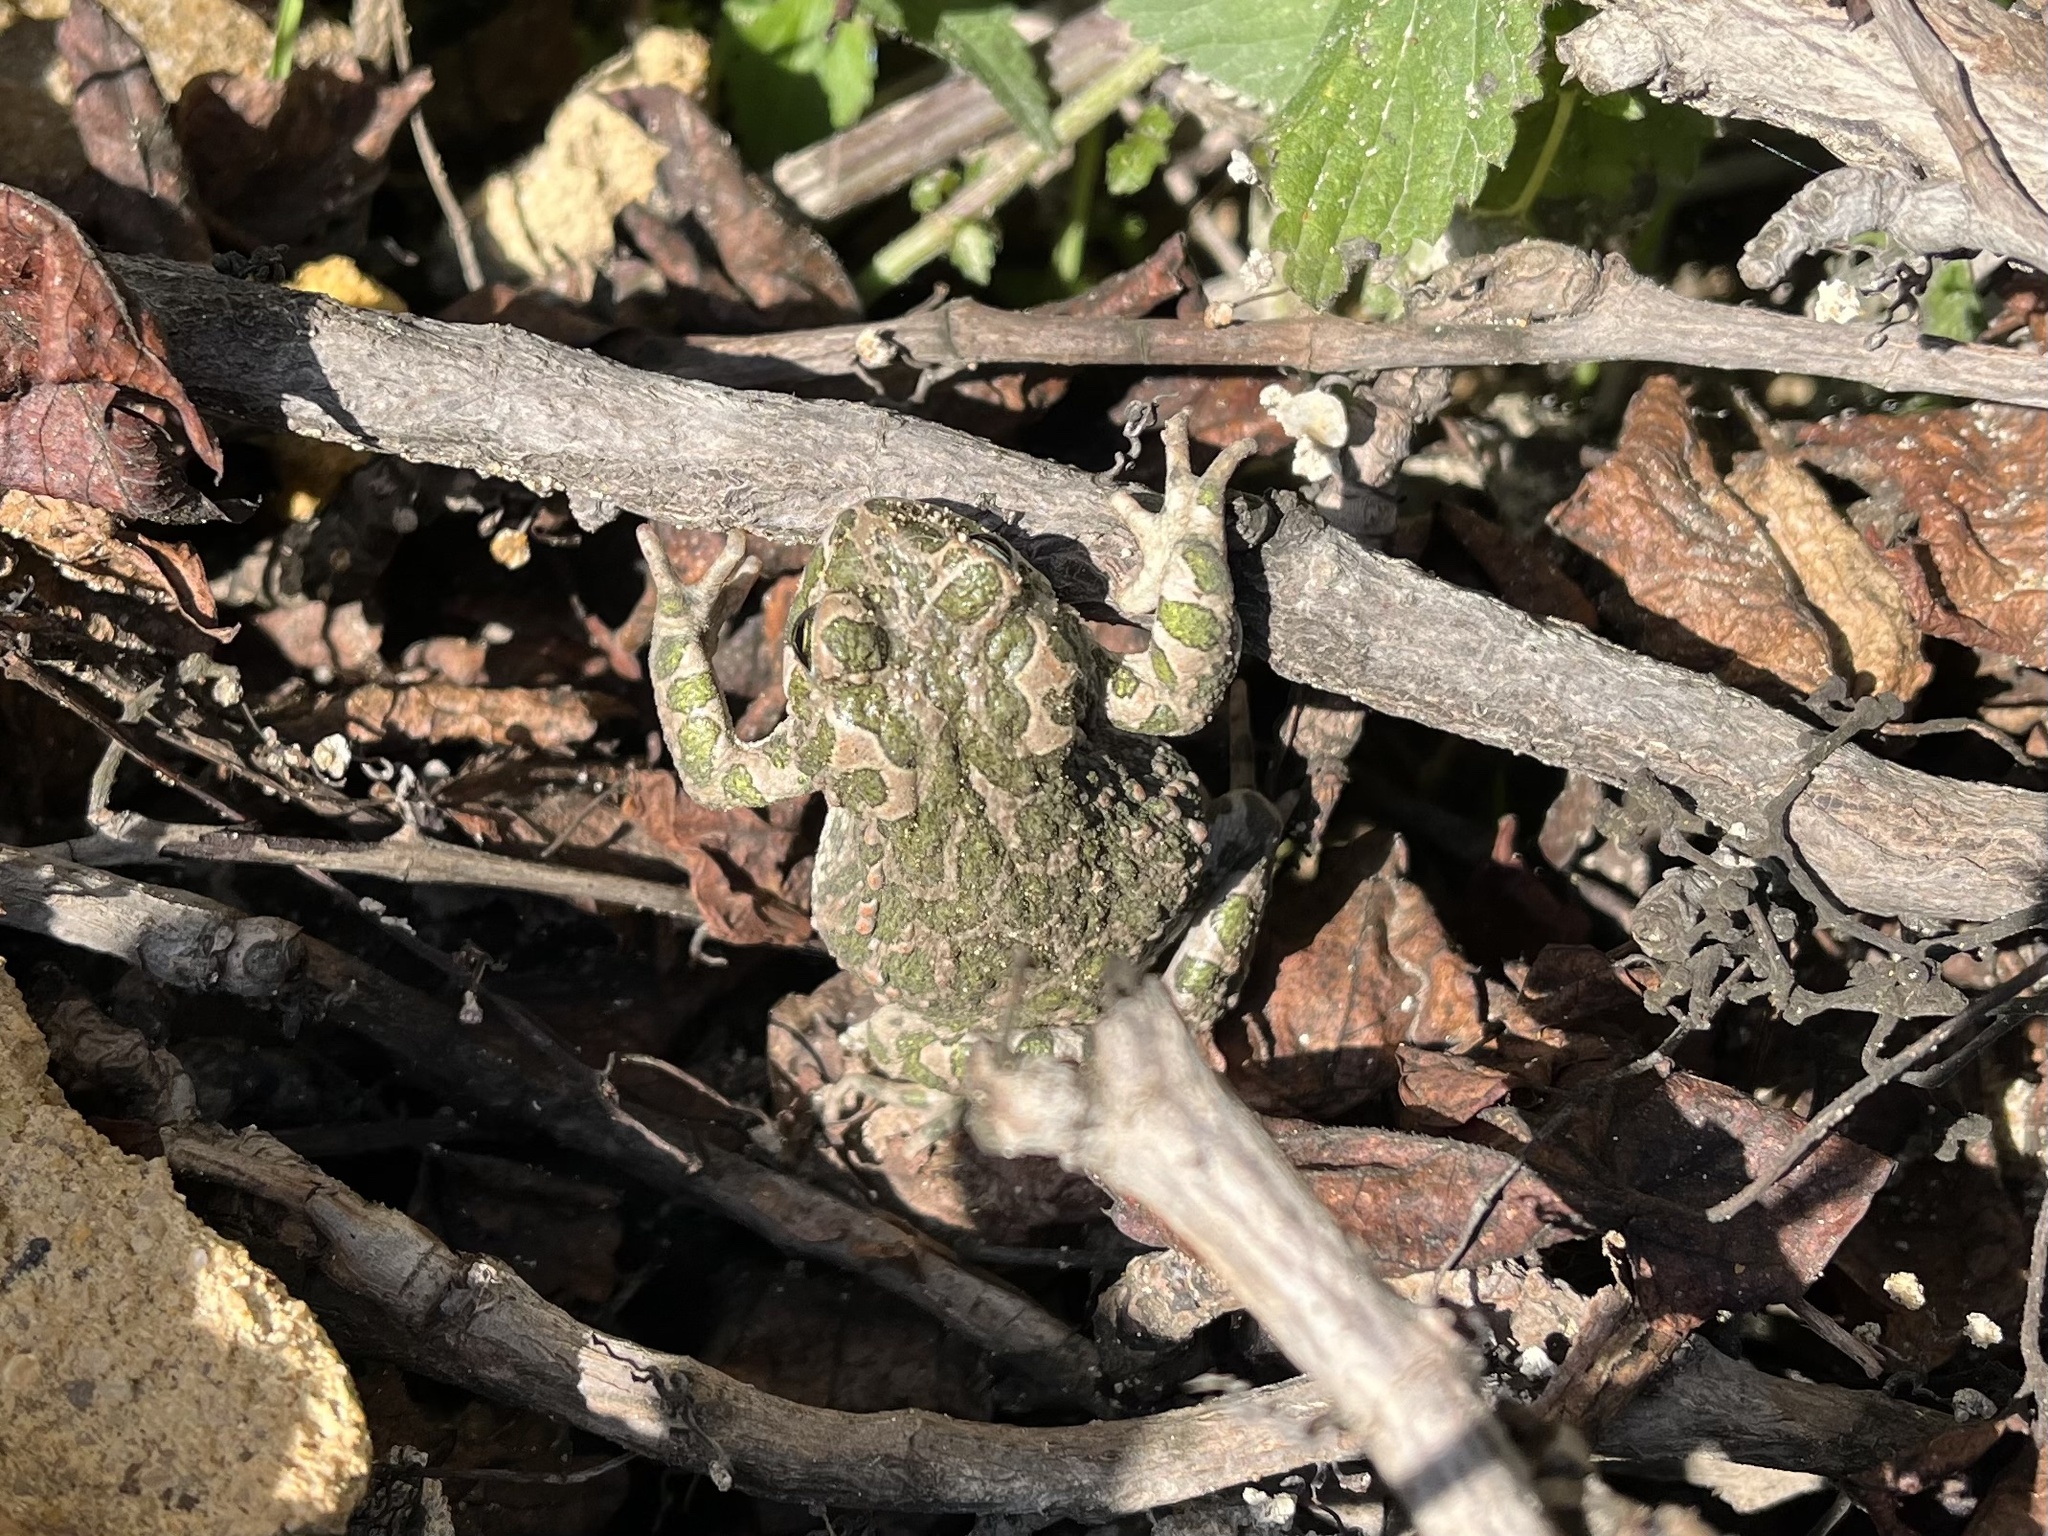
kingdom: Animalia
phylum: Chordata
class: Amphibia
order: Anura
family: Bufonidae
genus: Bufotes
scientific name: Bufotes viridis
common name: European green toad
